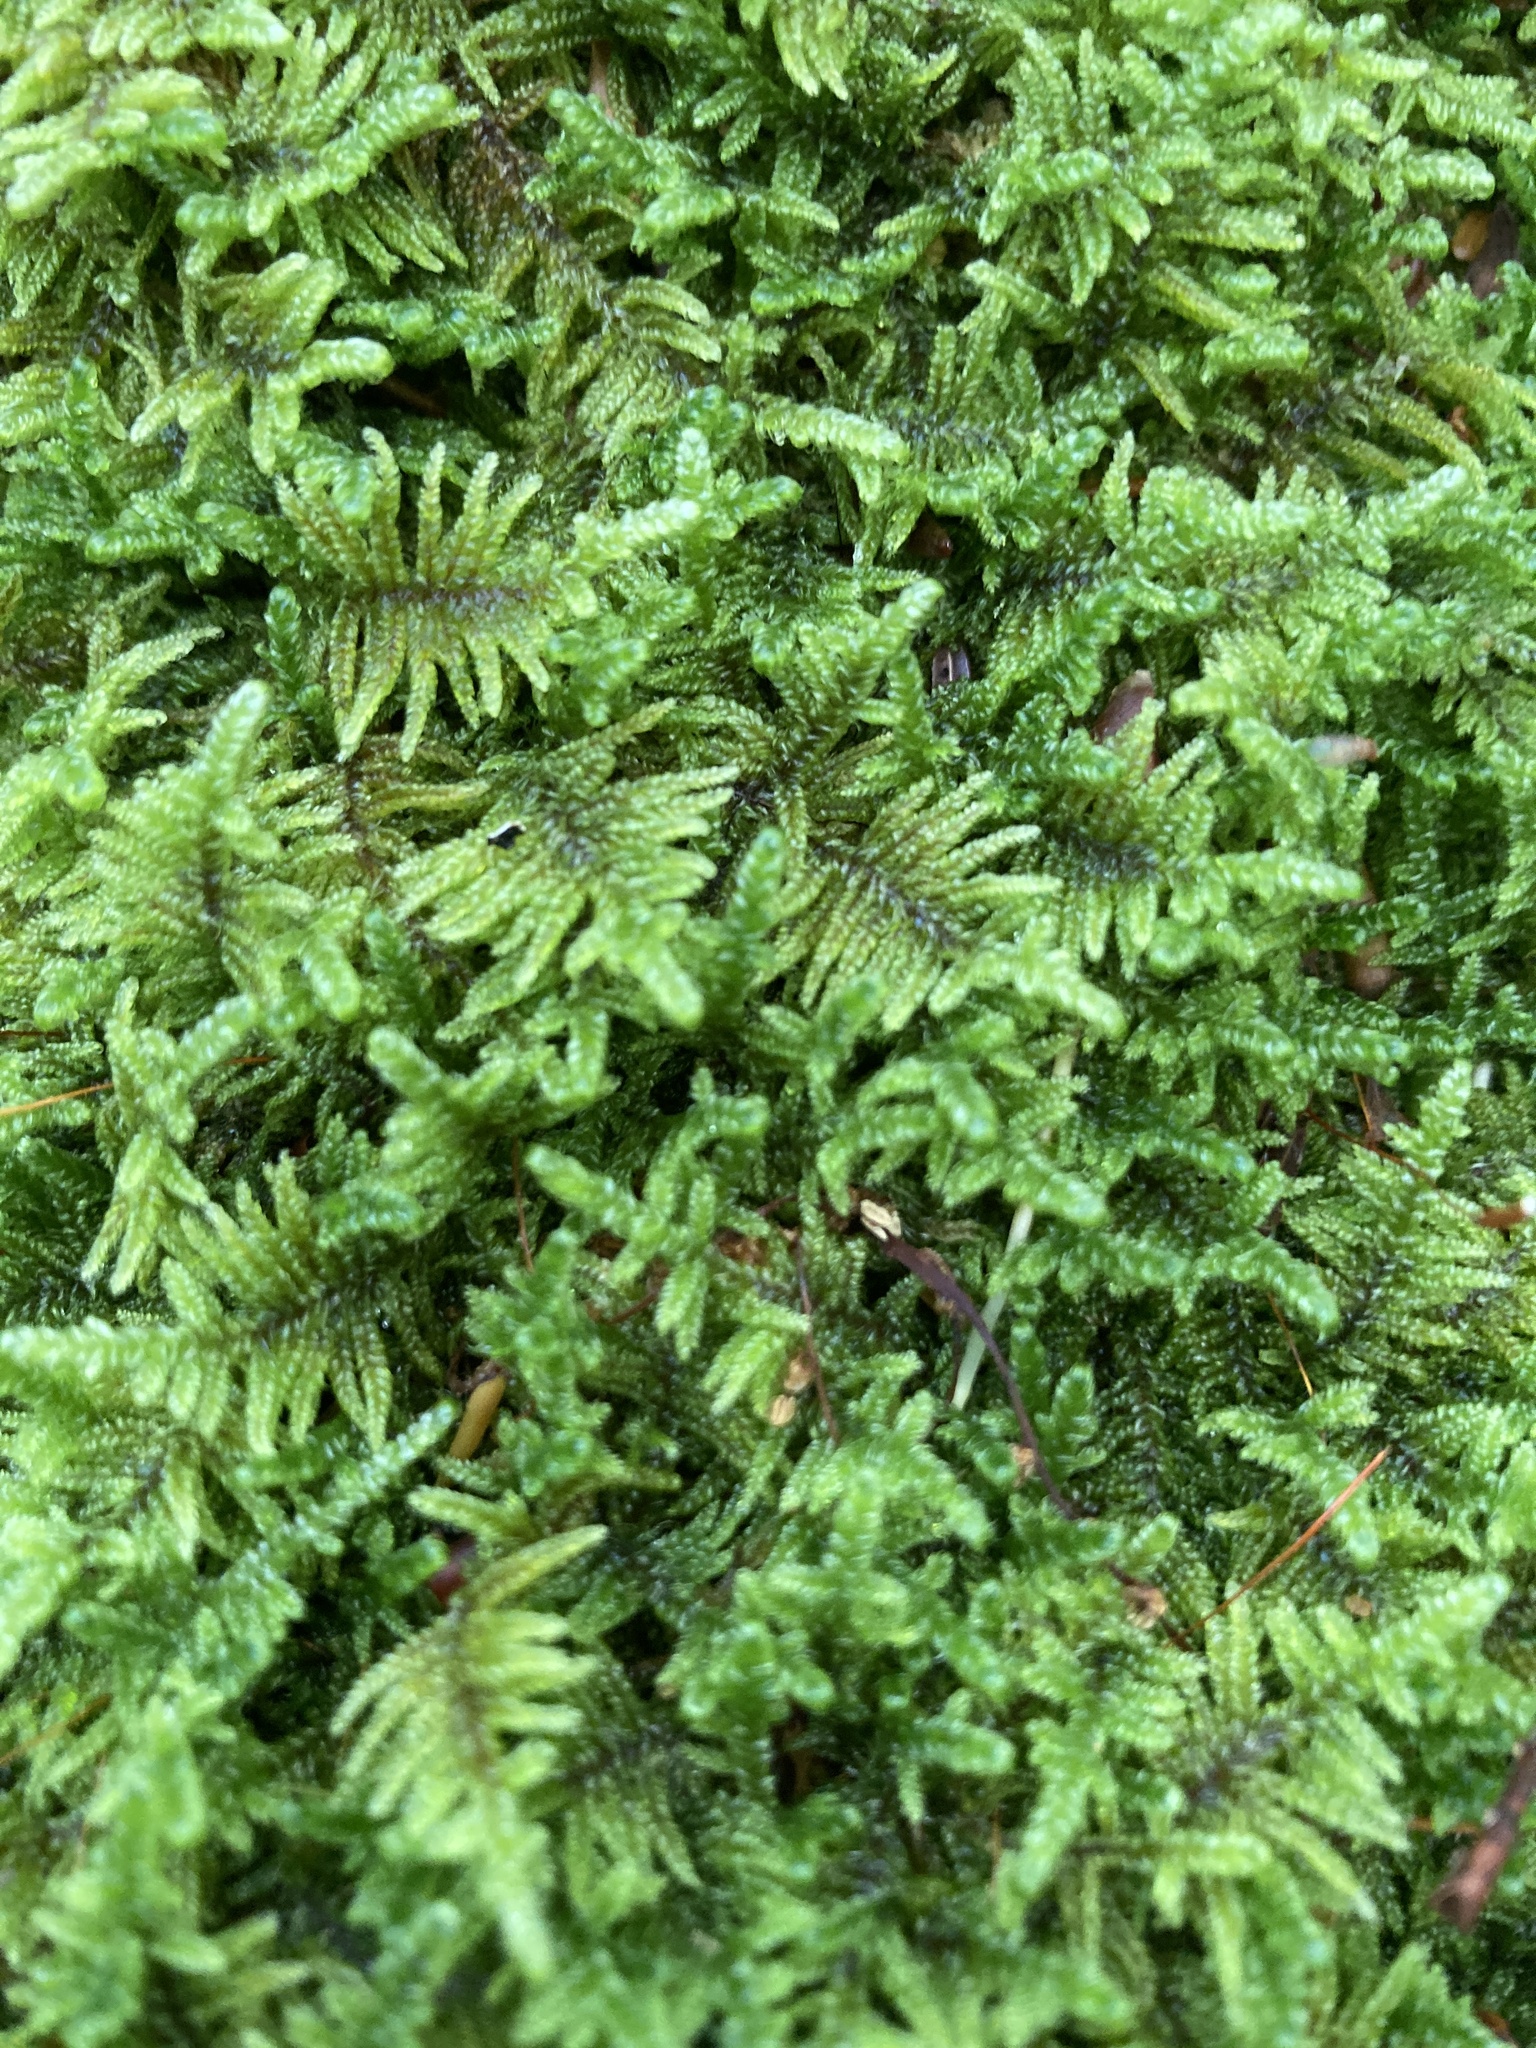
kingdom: Plantae
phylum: Bryophyta
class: Bryopsida
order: Hypnales
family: Callicladiaceae
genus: Callicladium
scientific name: Callicladium imponens
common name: Brocade moss
